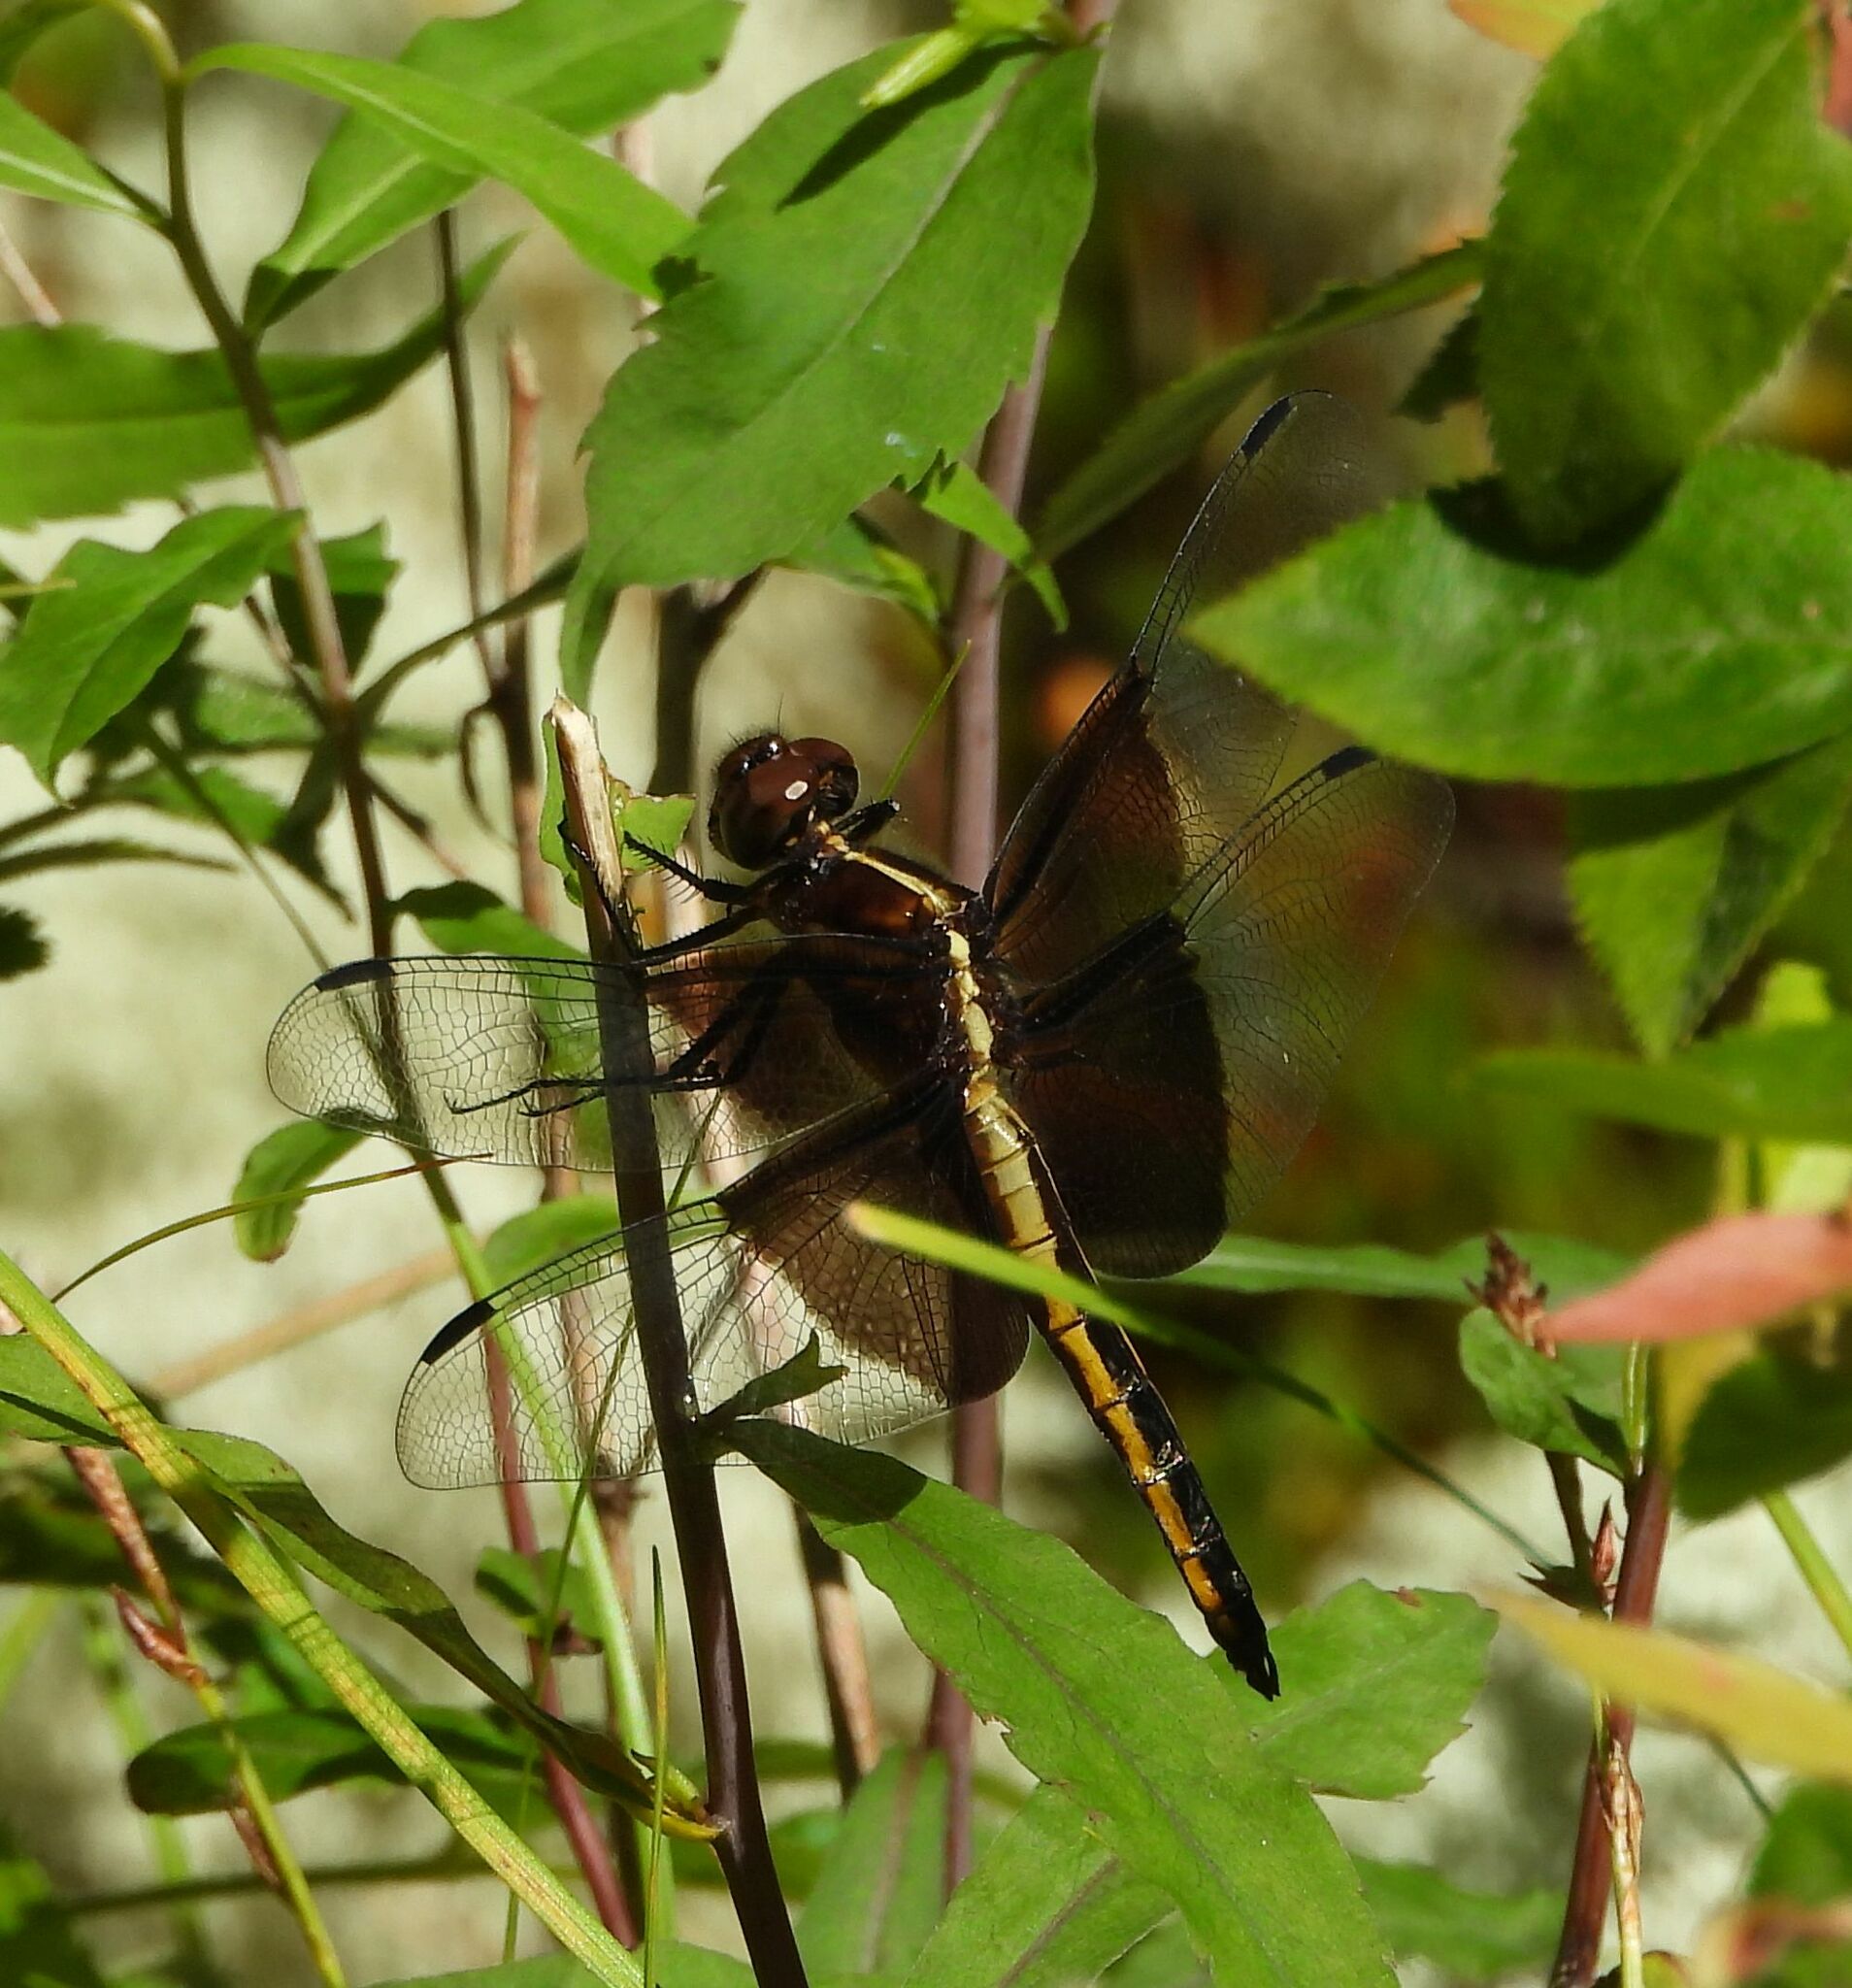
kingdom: Animalia
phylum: Arthropoda
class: Insecta
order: Odonata
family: Libellulidae
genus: Libellula
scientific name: Libellula luctuosa
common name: Widow skimmer
